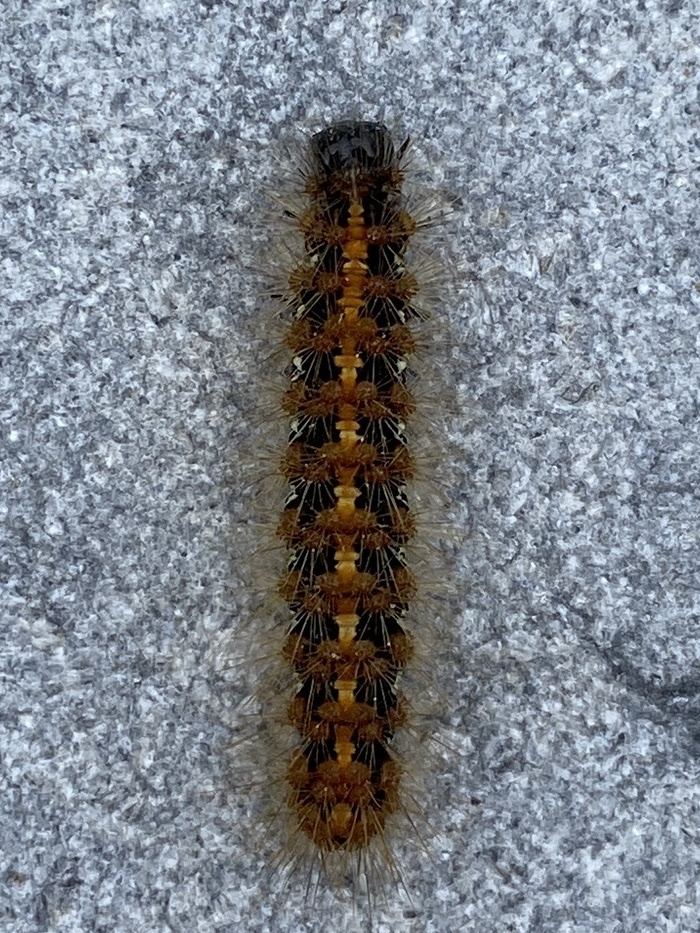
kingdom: Animalia
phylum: Arthropoda
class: Insecta
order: Lepidoptera
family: Erebidae
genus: Euplagia
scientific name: Euplagia quadripunctaria
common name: Jersey tiger
